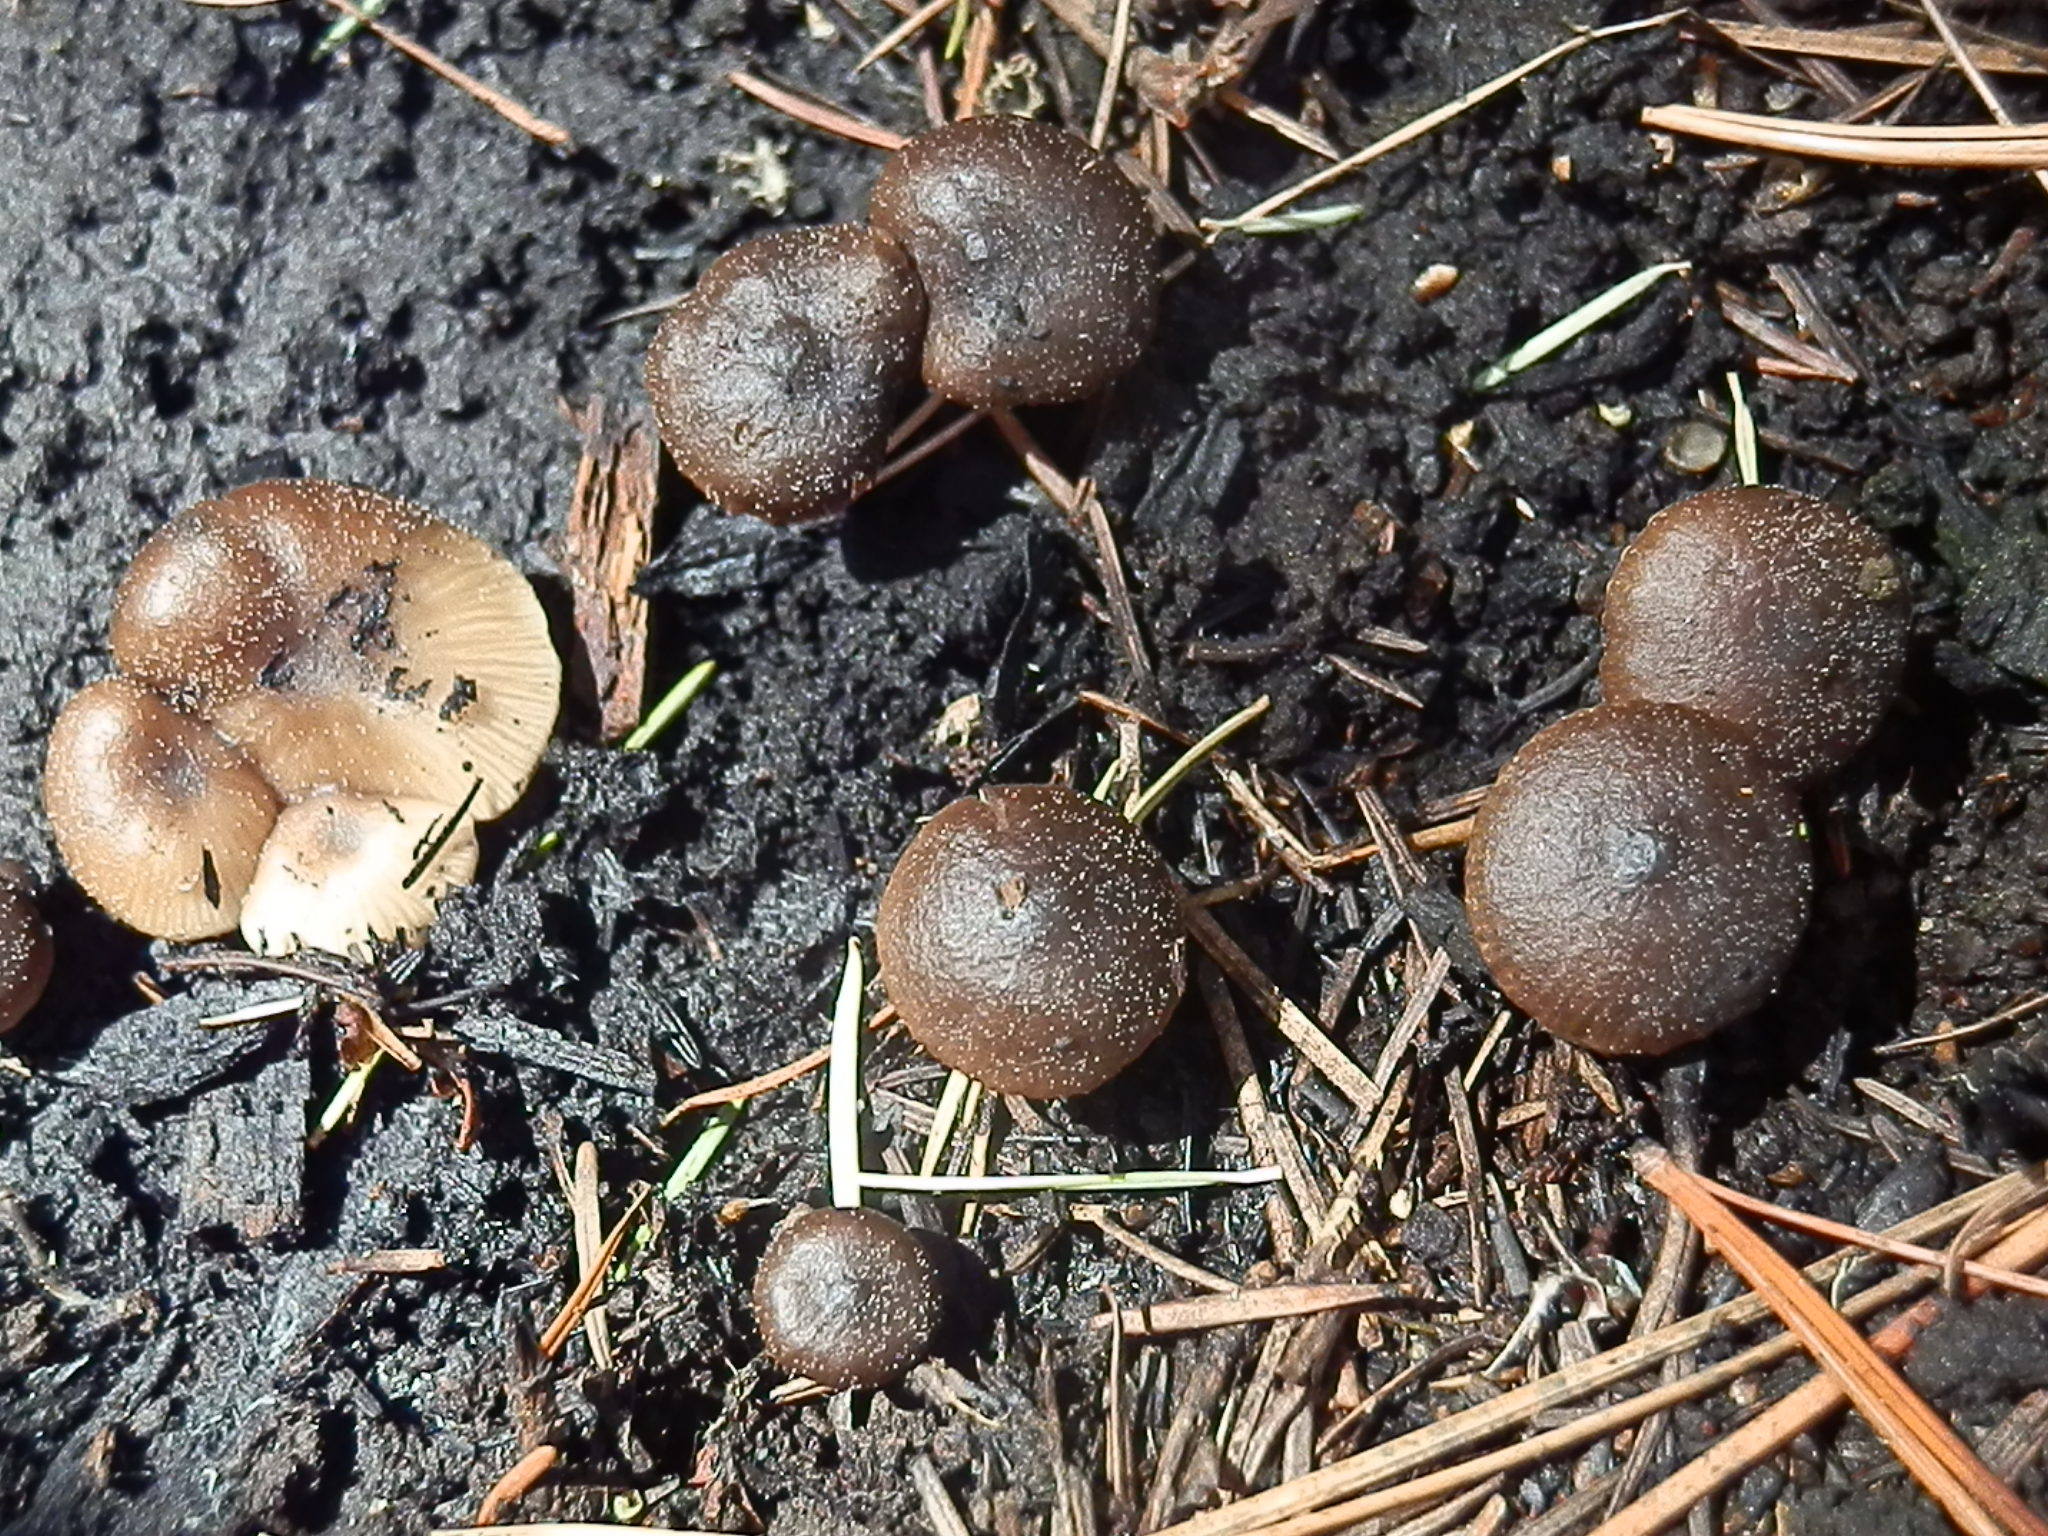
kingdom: Fungi
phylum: Basidiomycota
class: Agaricomycetes
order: Agaricales
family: Lyophyllaceae
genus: Lyophyllum
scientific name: Lyophyllum anthracophilum
